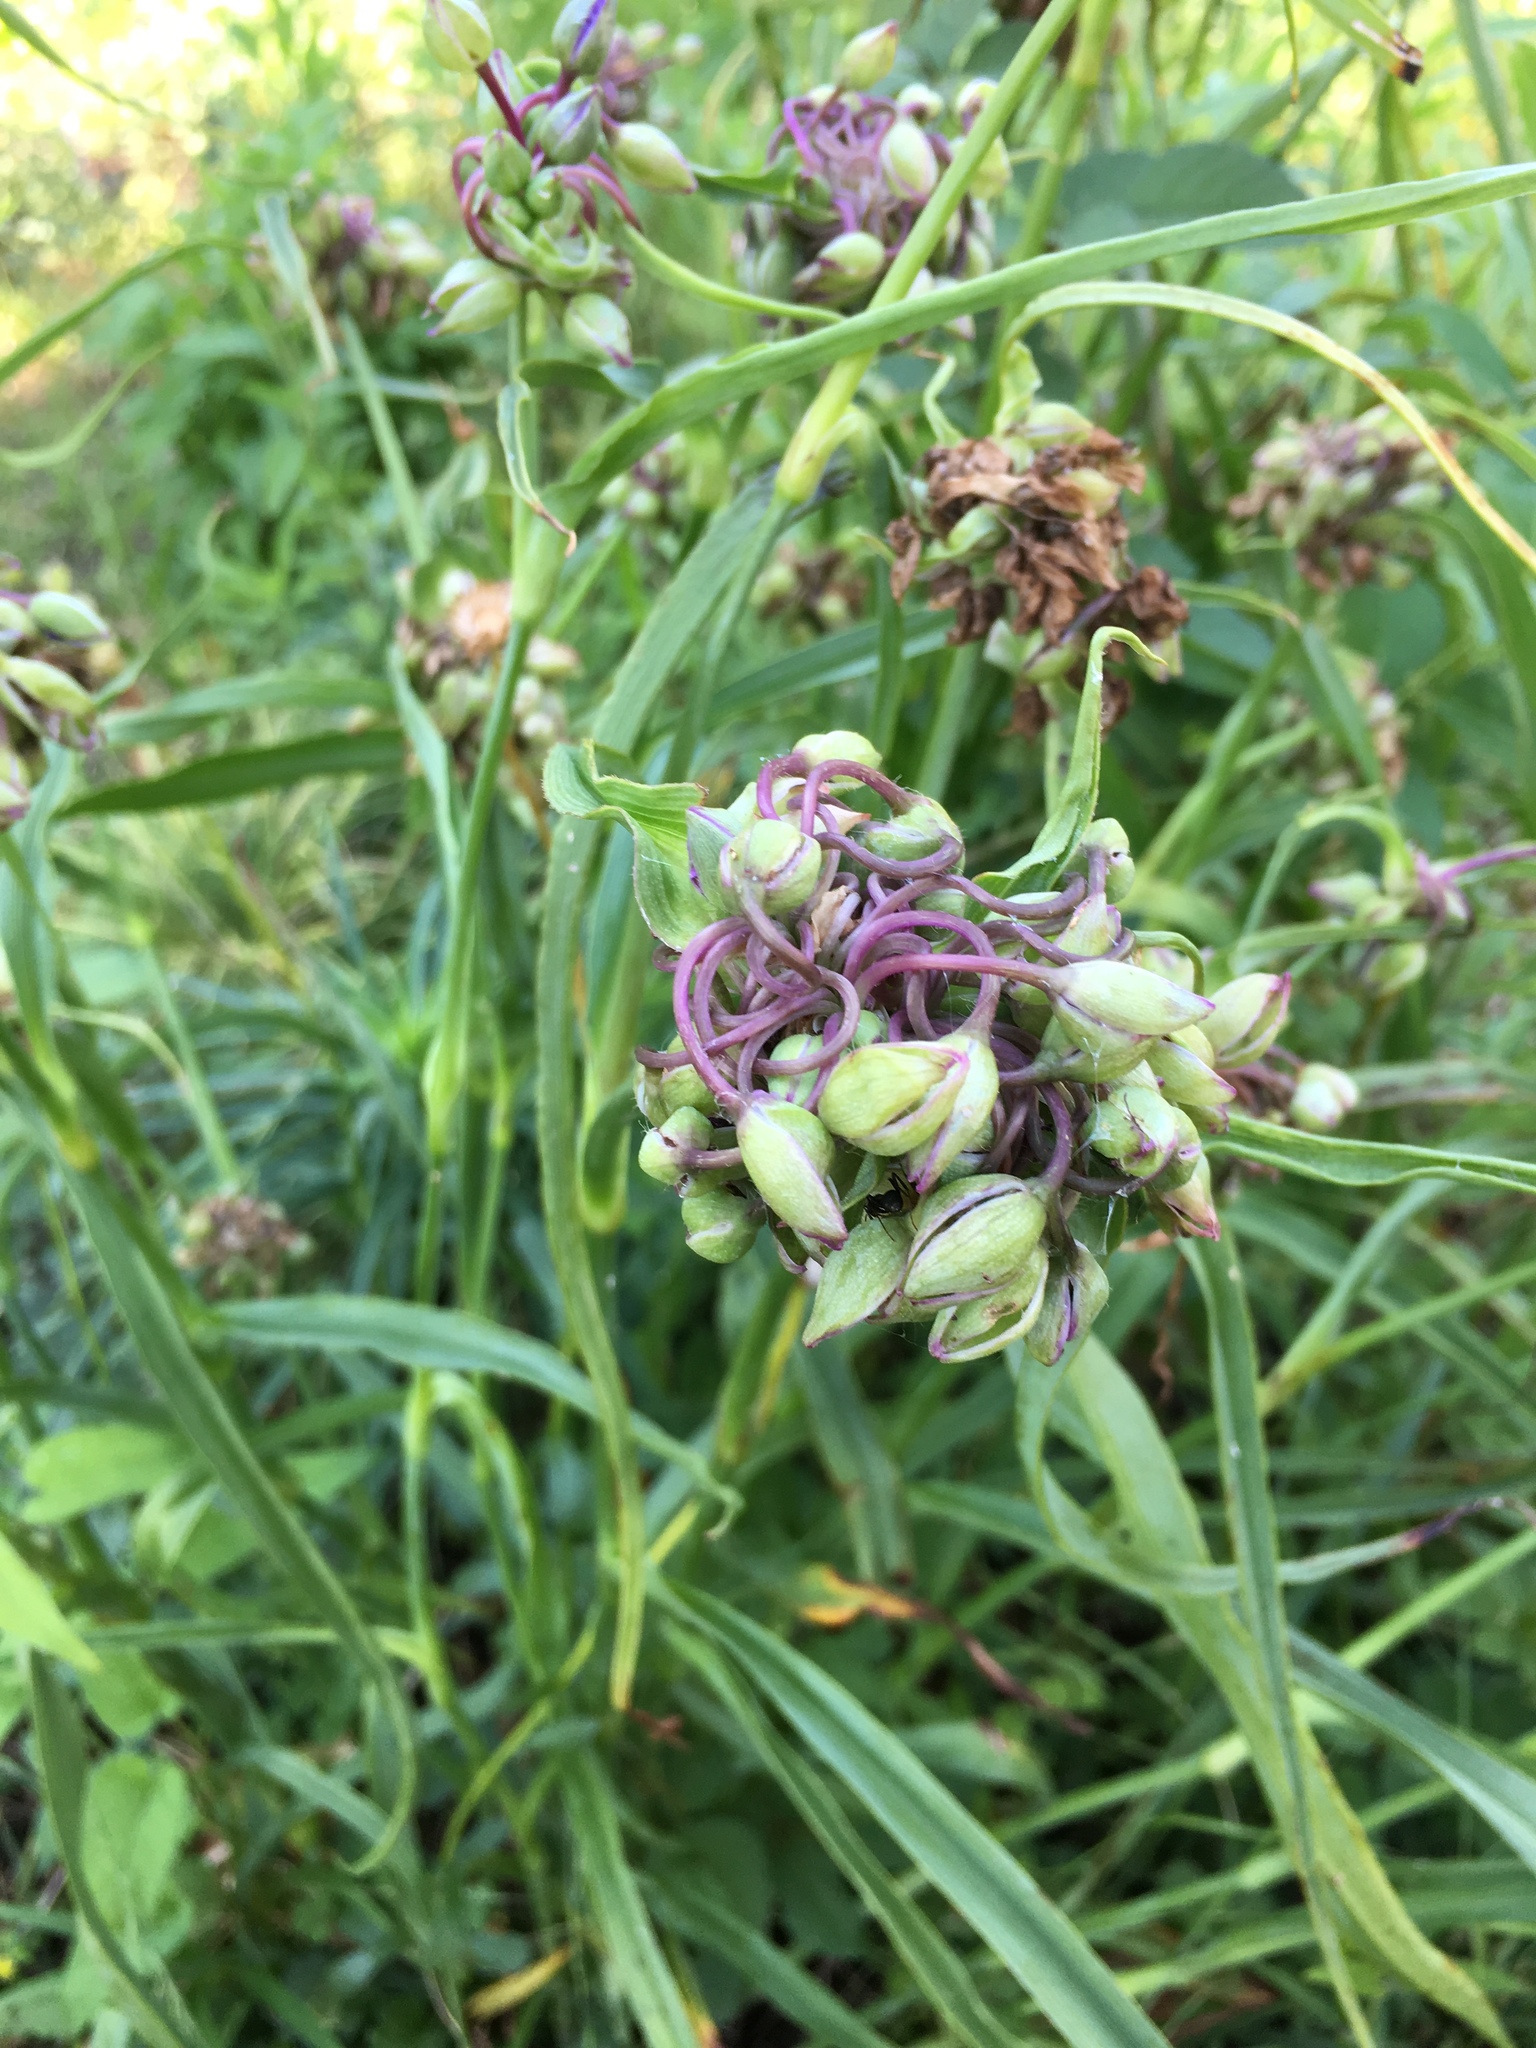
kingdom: Plantae
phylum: Tracheophyta
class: Liliopsida
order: Commelinales
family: Commelinaceae
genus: Tradescantia
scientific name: Tradescantia ohiensis
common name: Ohio spiderwort
